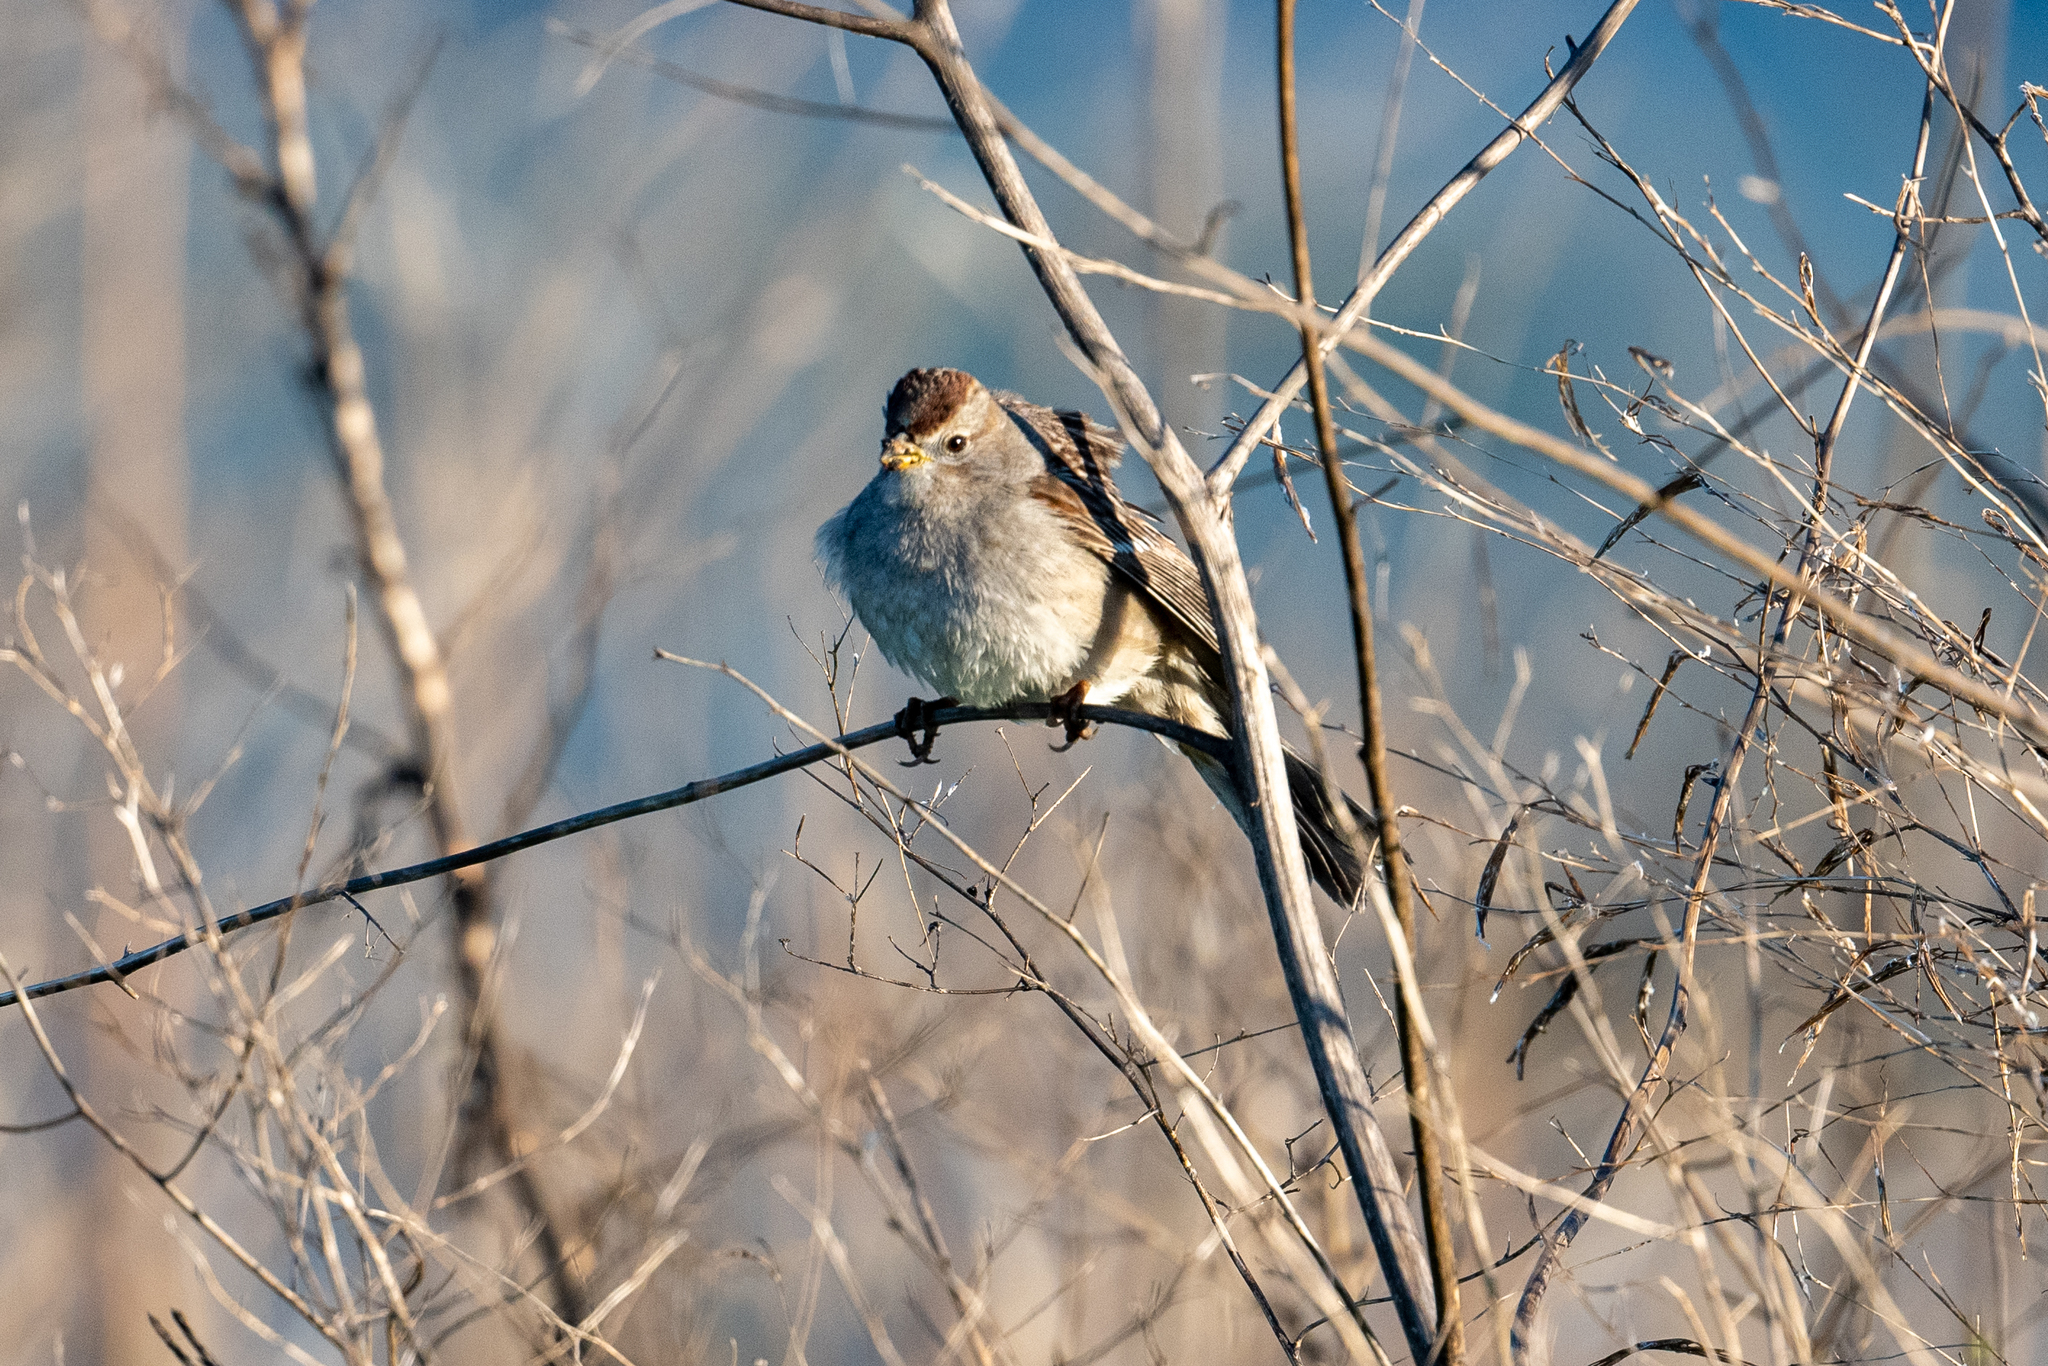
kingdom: Animalia
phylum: Chordata
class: Aves
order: Passeriformes
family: Passerellidae
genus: Zonotrichia
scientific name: Zonotrichia leucophrys
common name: White-crowned sparrow
